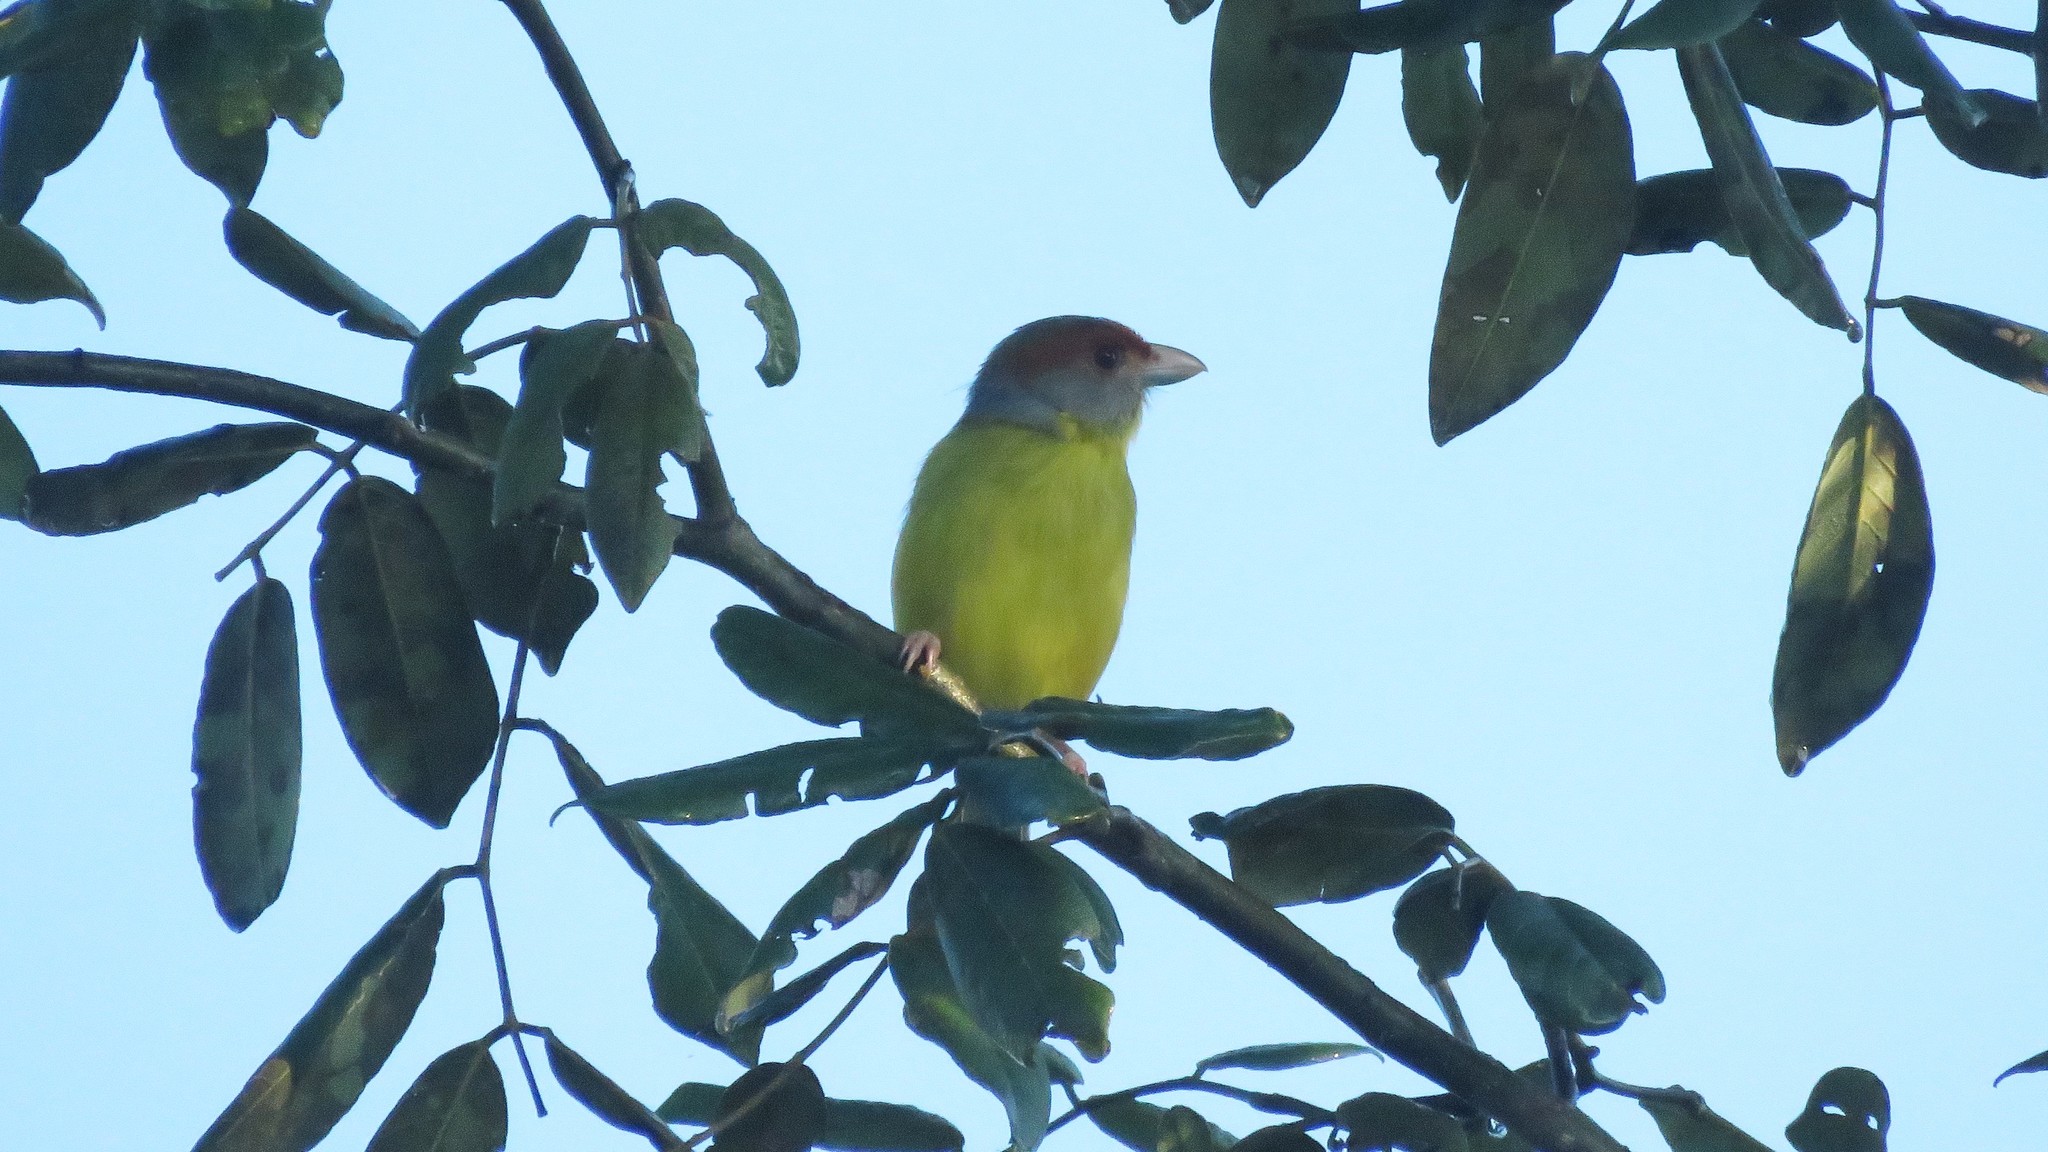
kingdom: Animalia
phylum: Chordata
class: Aves
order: Passeriformes
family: Vireonidae
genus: Cyclarhis
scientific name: Cyclarhis gujanensis
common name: Rufous-browed peppershrike
